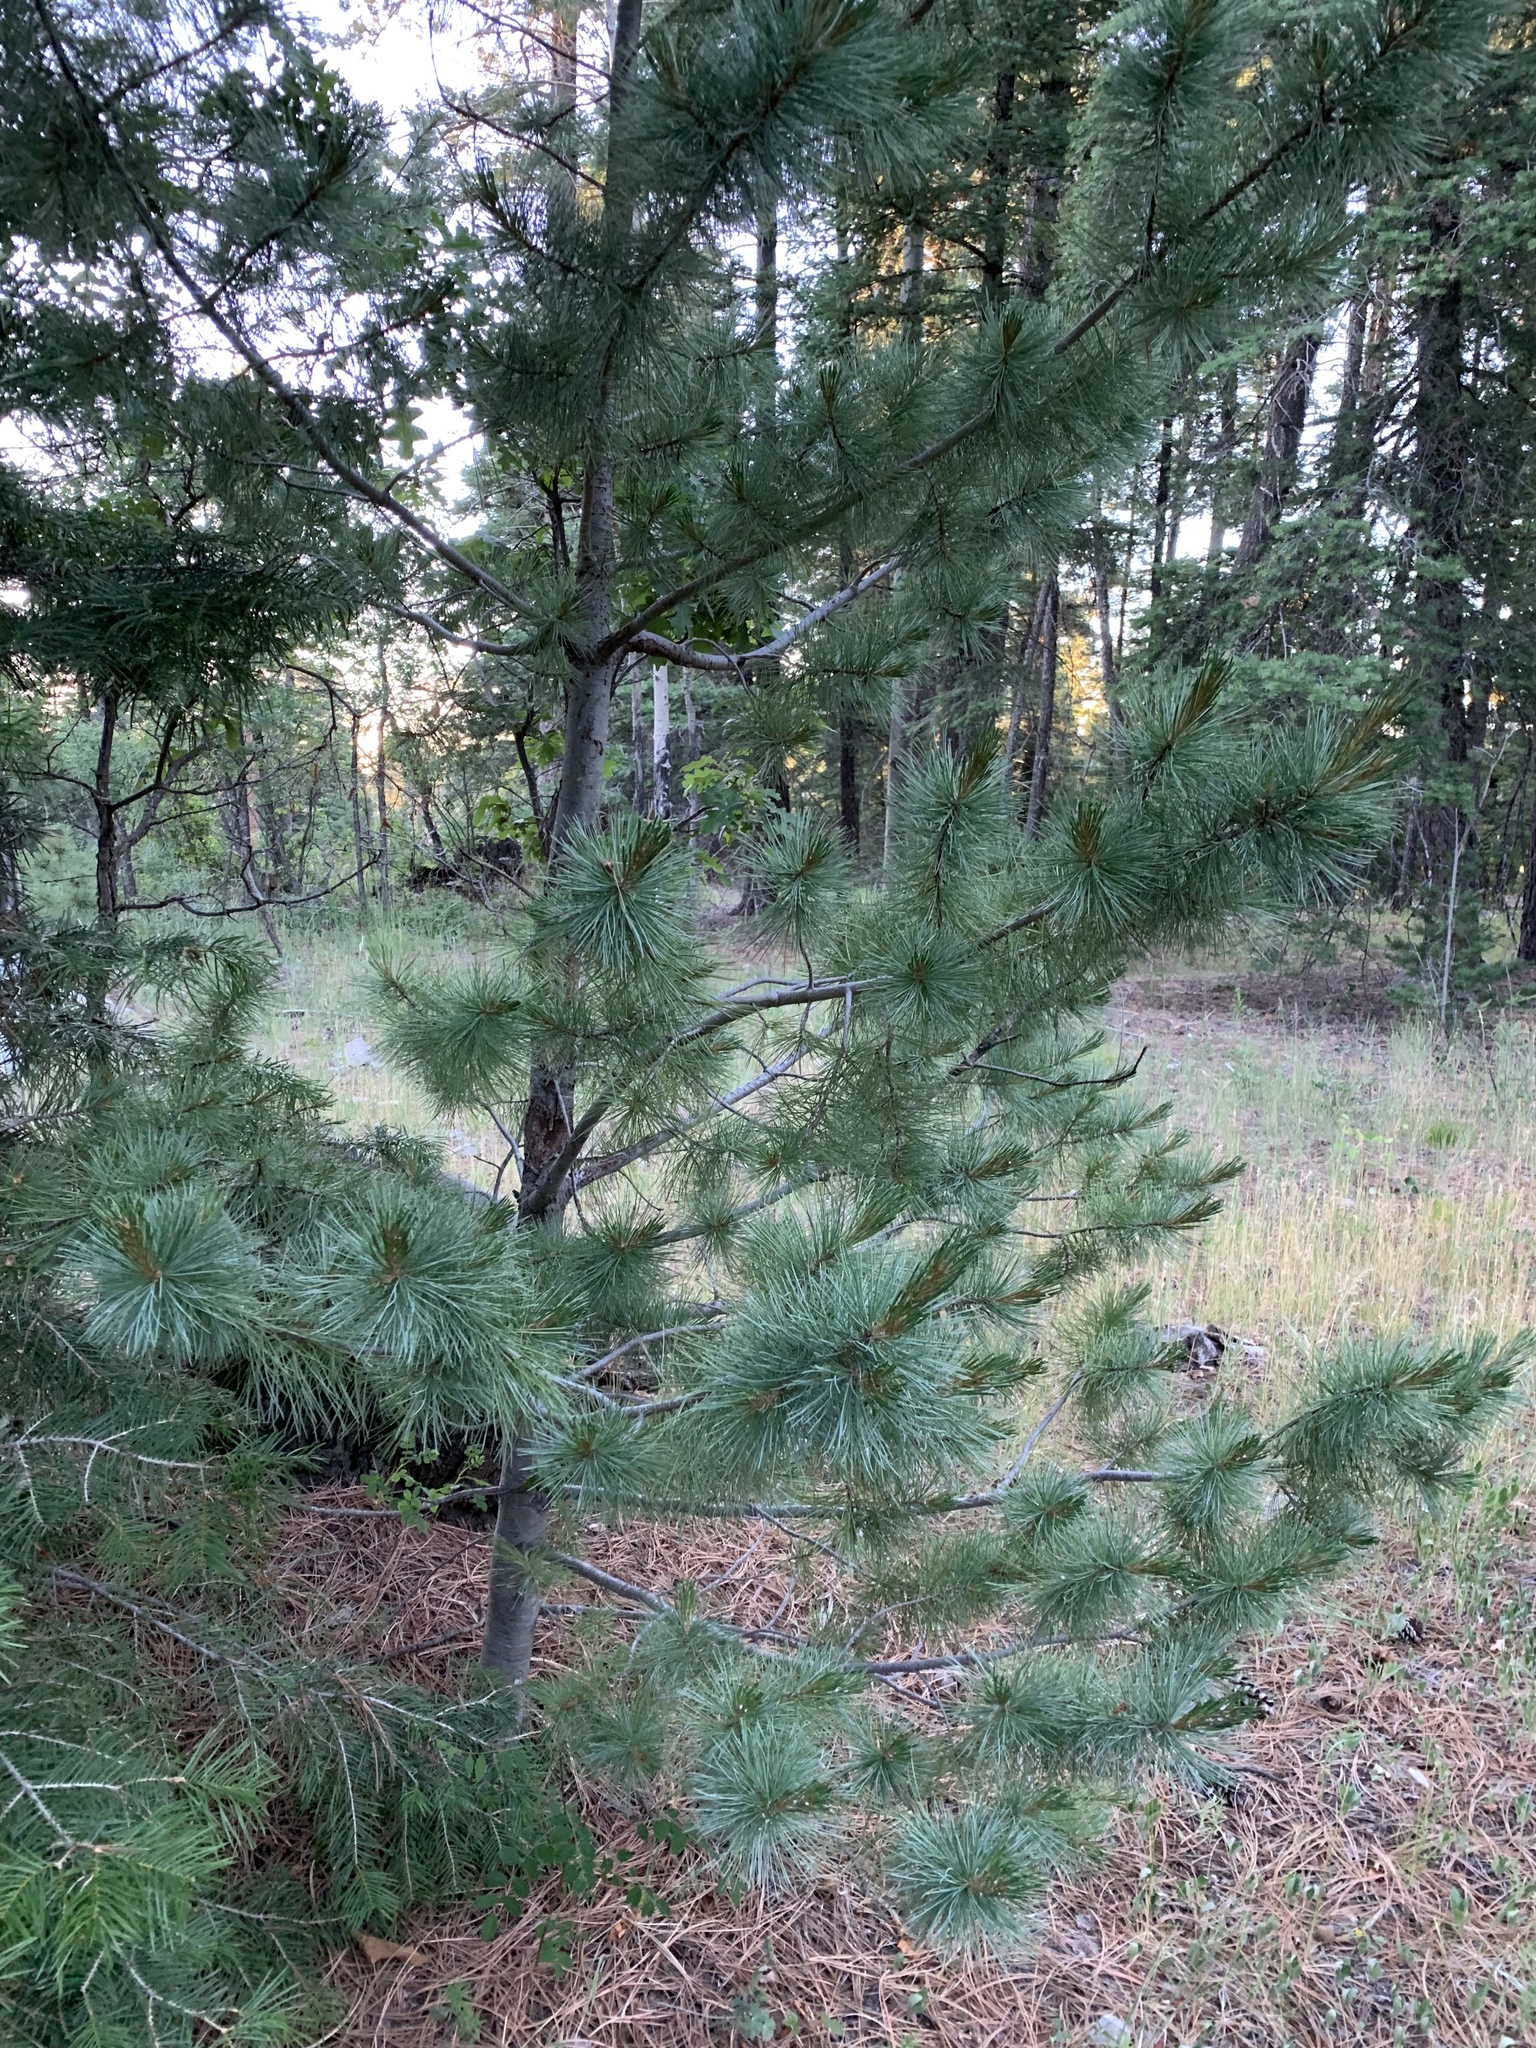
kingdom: Plantae
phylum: Tracheophyta
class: Pinopsida
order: Pinales
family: Pinaceae
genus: Pinus
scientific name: Pinus strobiformis
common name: Southwestern white pine
